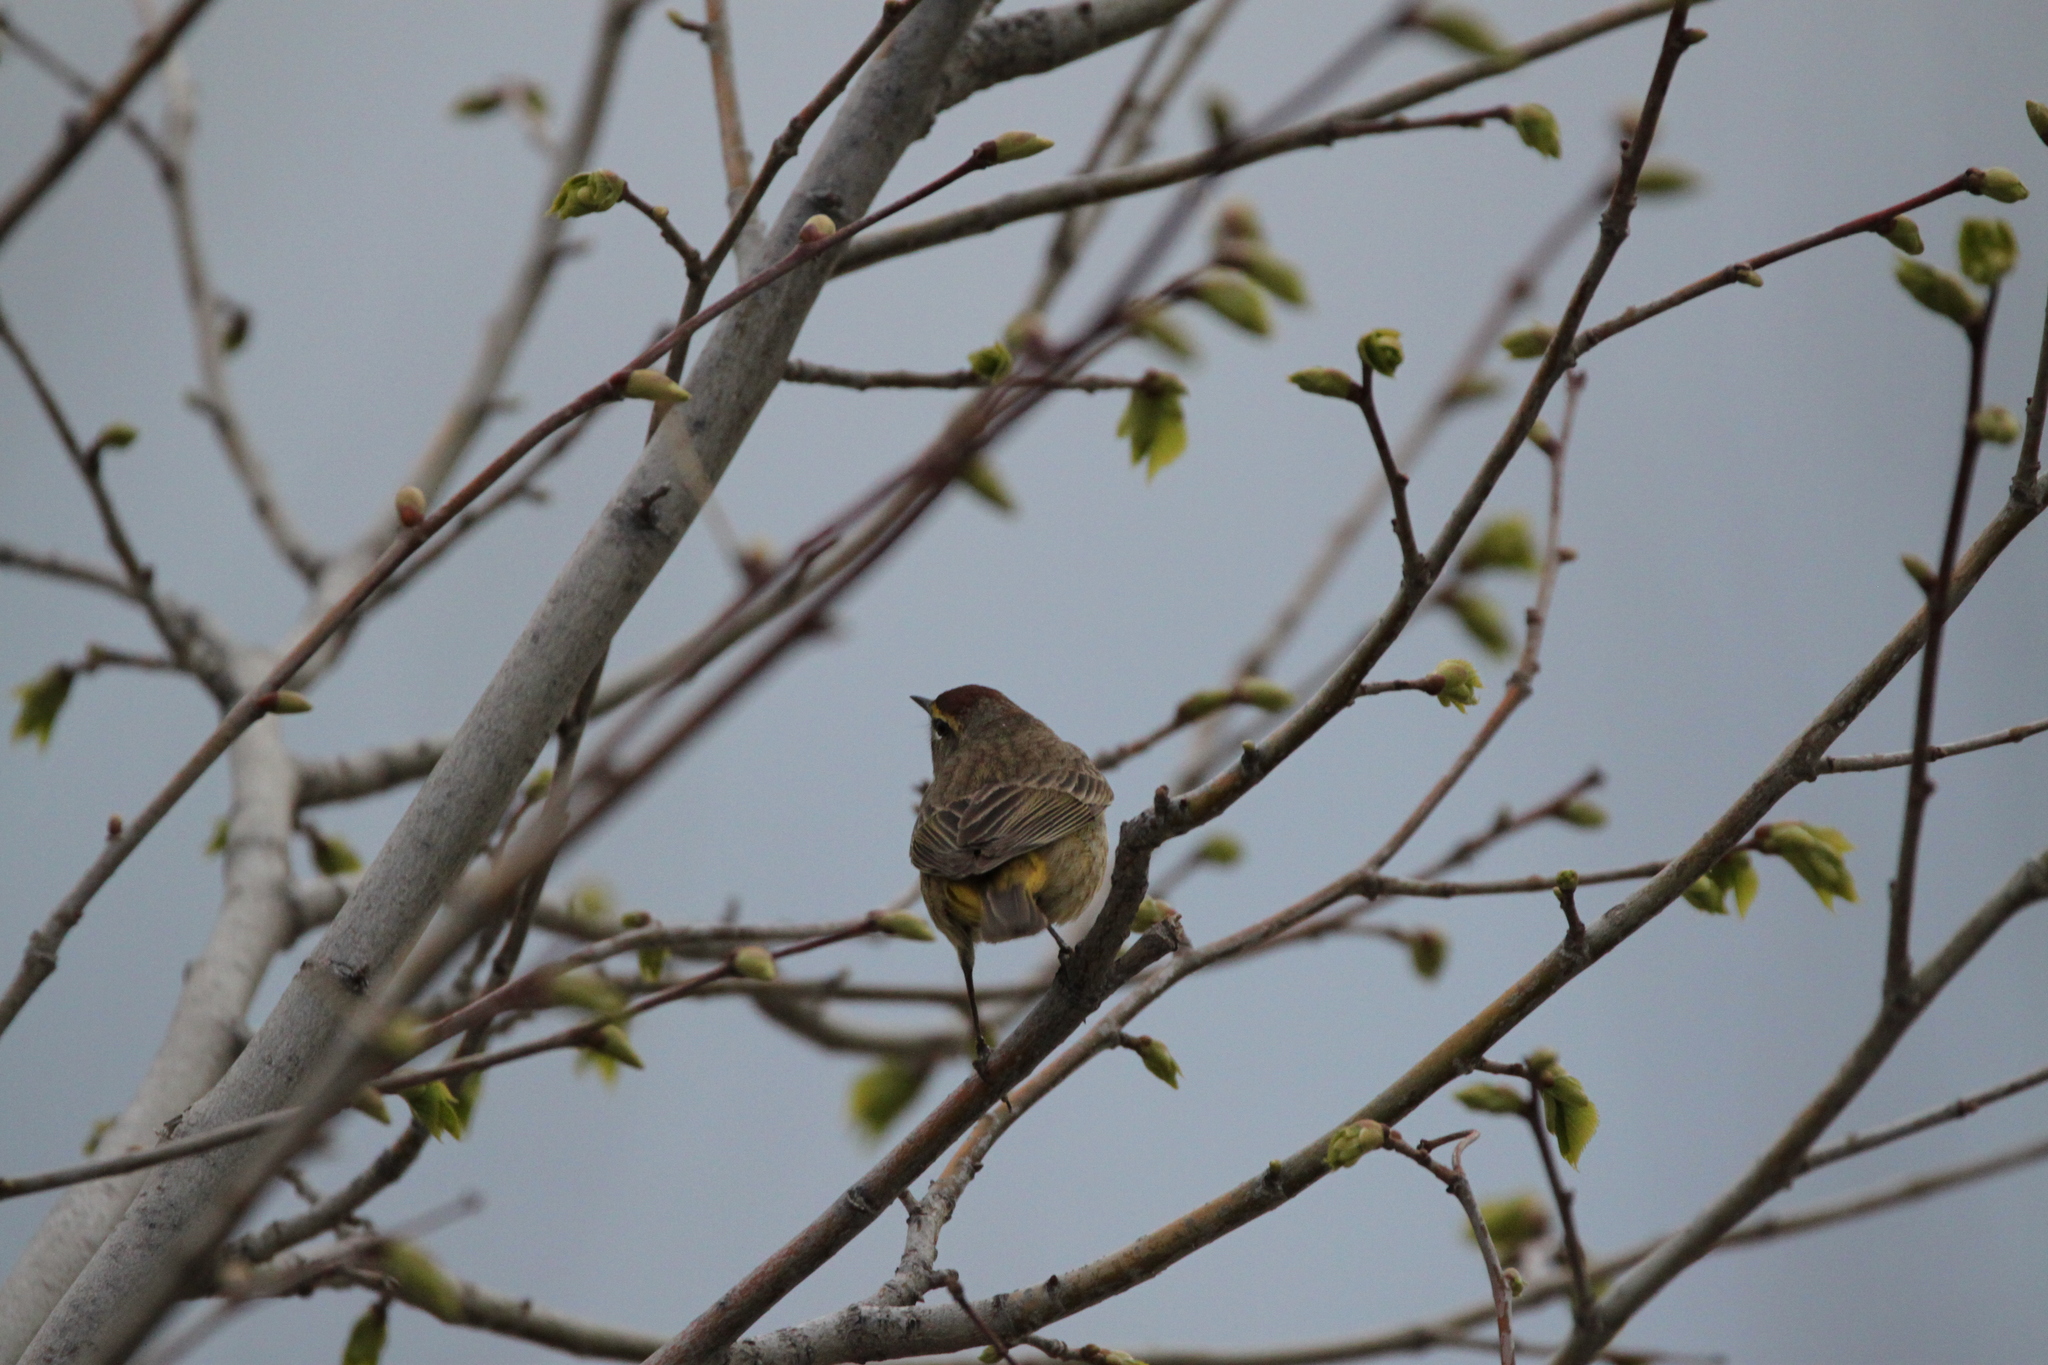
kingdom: Animalia
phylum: Chordata
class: Aves
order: Passeriformes
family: Parulidae
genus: Setophaga
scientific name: Setophaga palmarum
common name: Palm warbler
